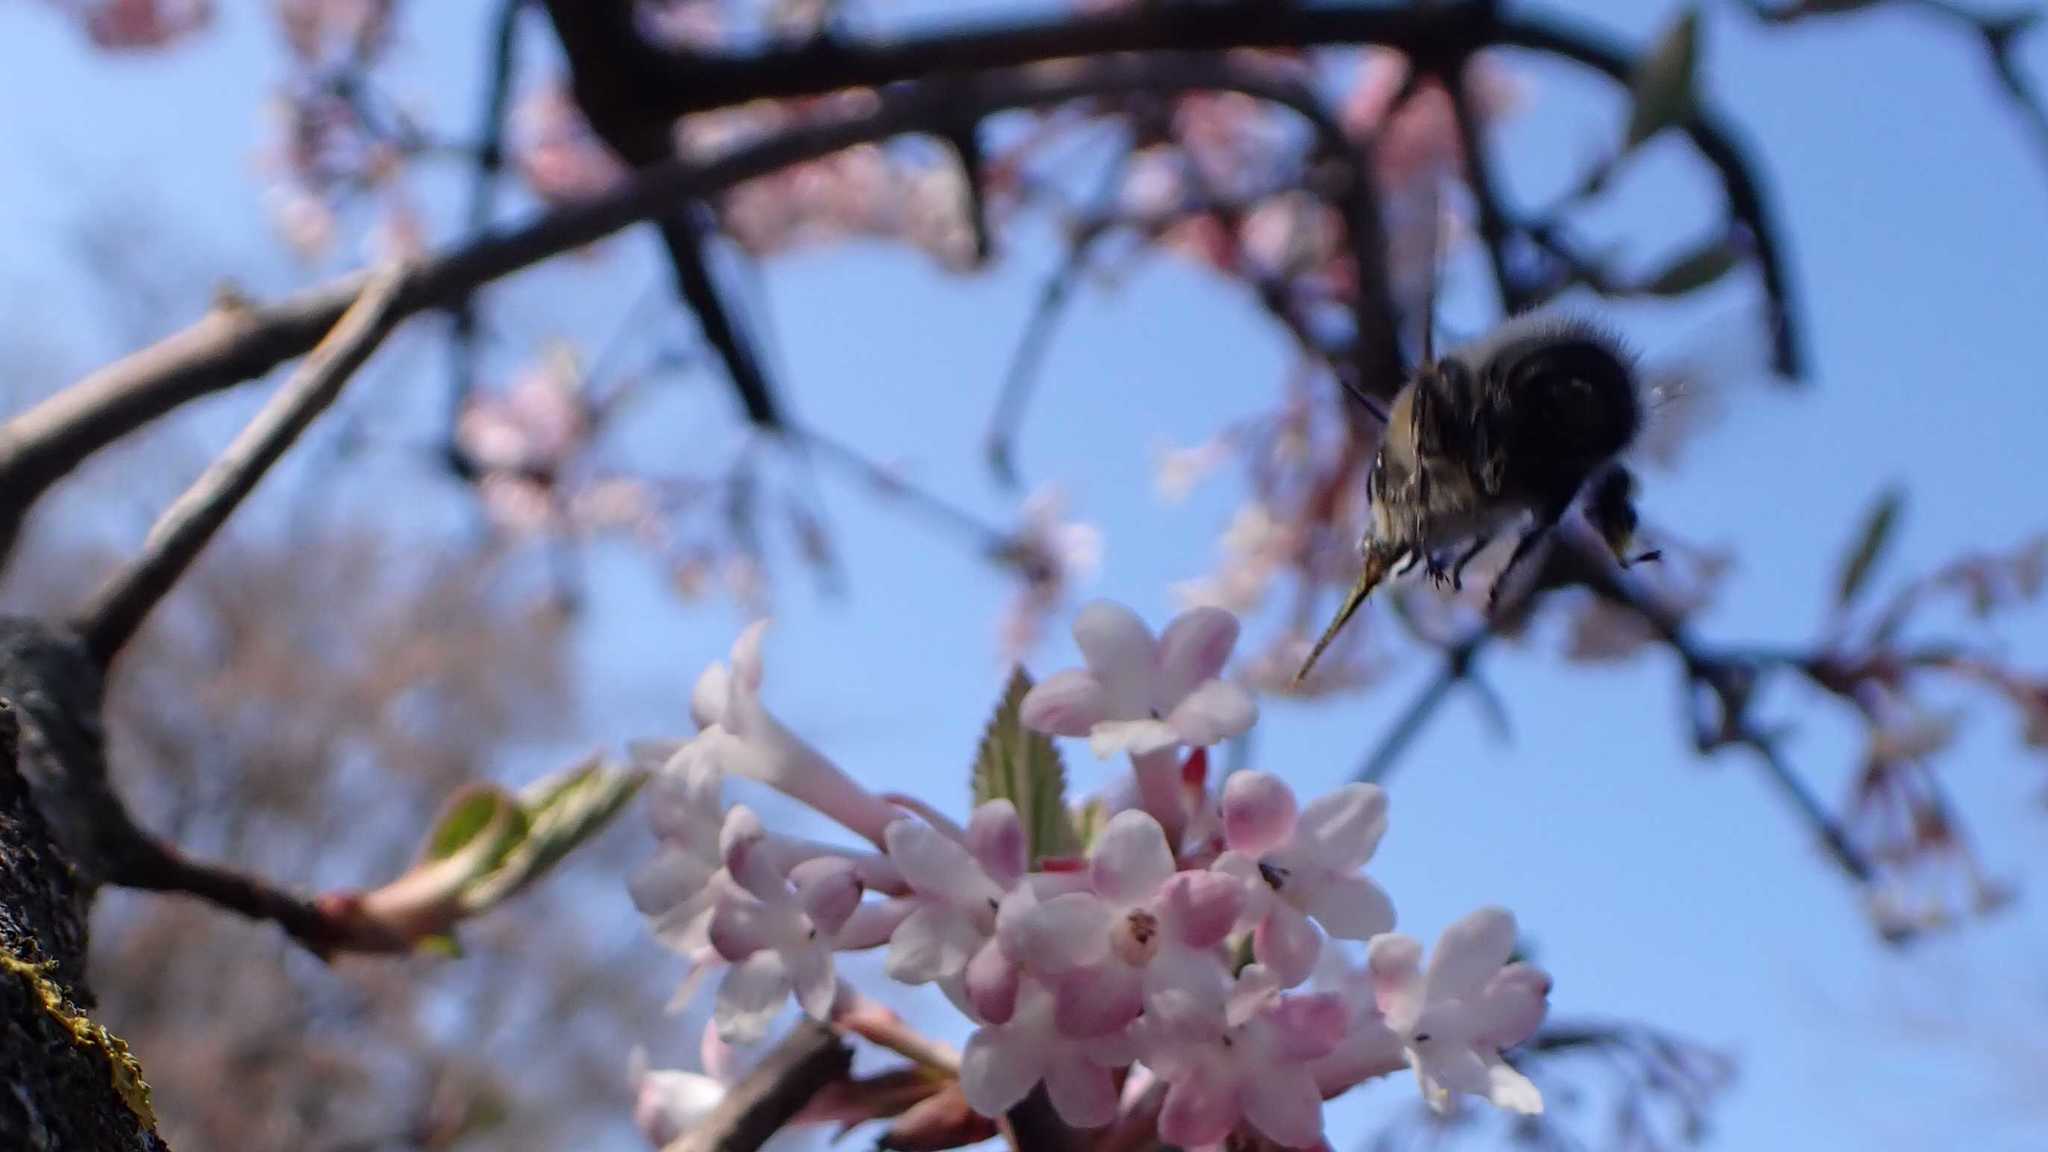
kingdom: Animalia
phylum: Arthropoda
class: Insecta
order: Hymenoptera
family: Apidae
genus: Anthophora
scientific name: Anthophora plumipes
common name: Hairy-footed flower bee
